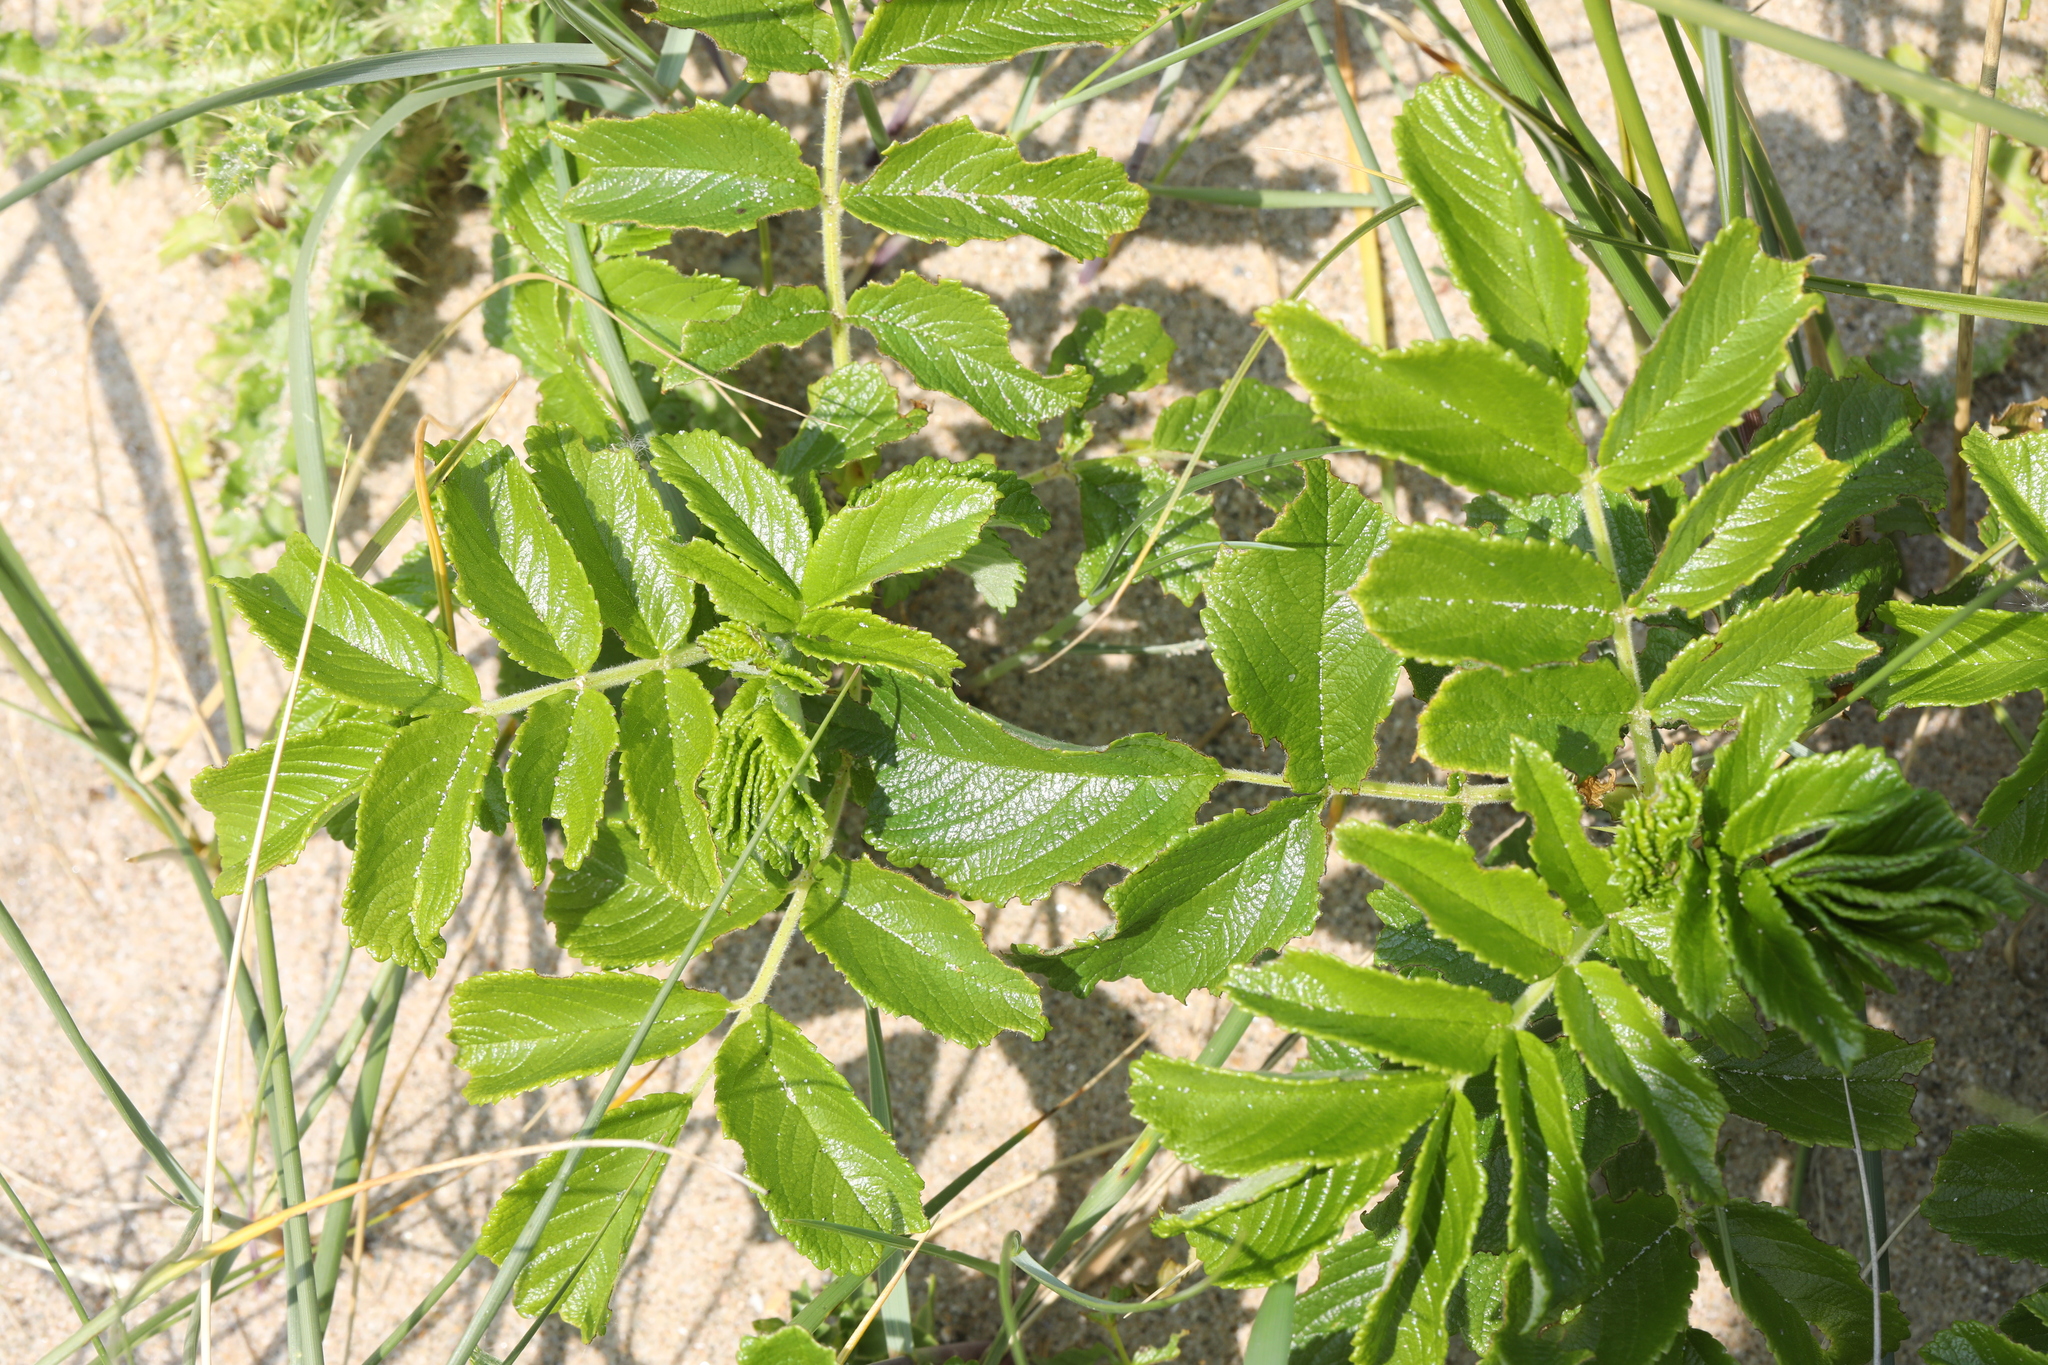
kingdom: Plantae
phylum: Tracheophyta
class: Magnoliopsida
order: Rosales
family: Rosaceae
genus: Rosa
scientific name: Rosa rugosa
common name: Japanese rose
